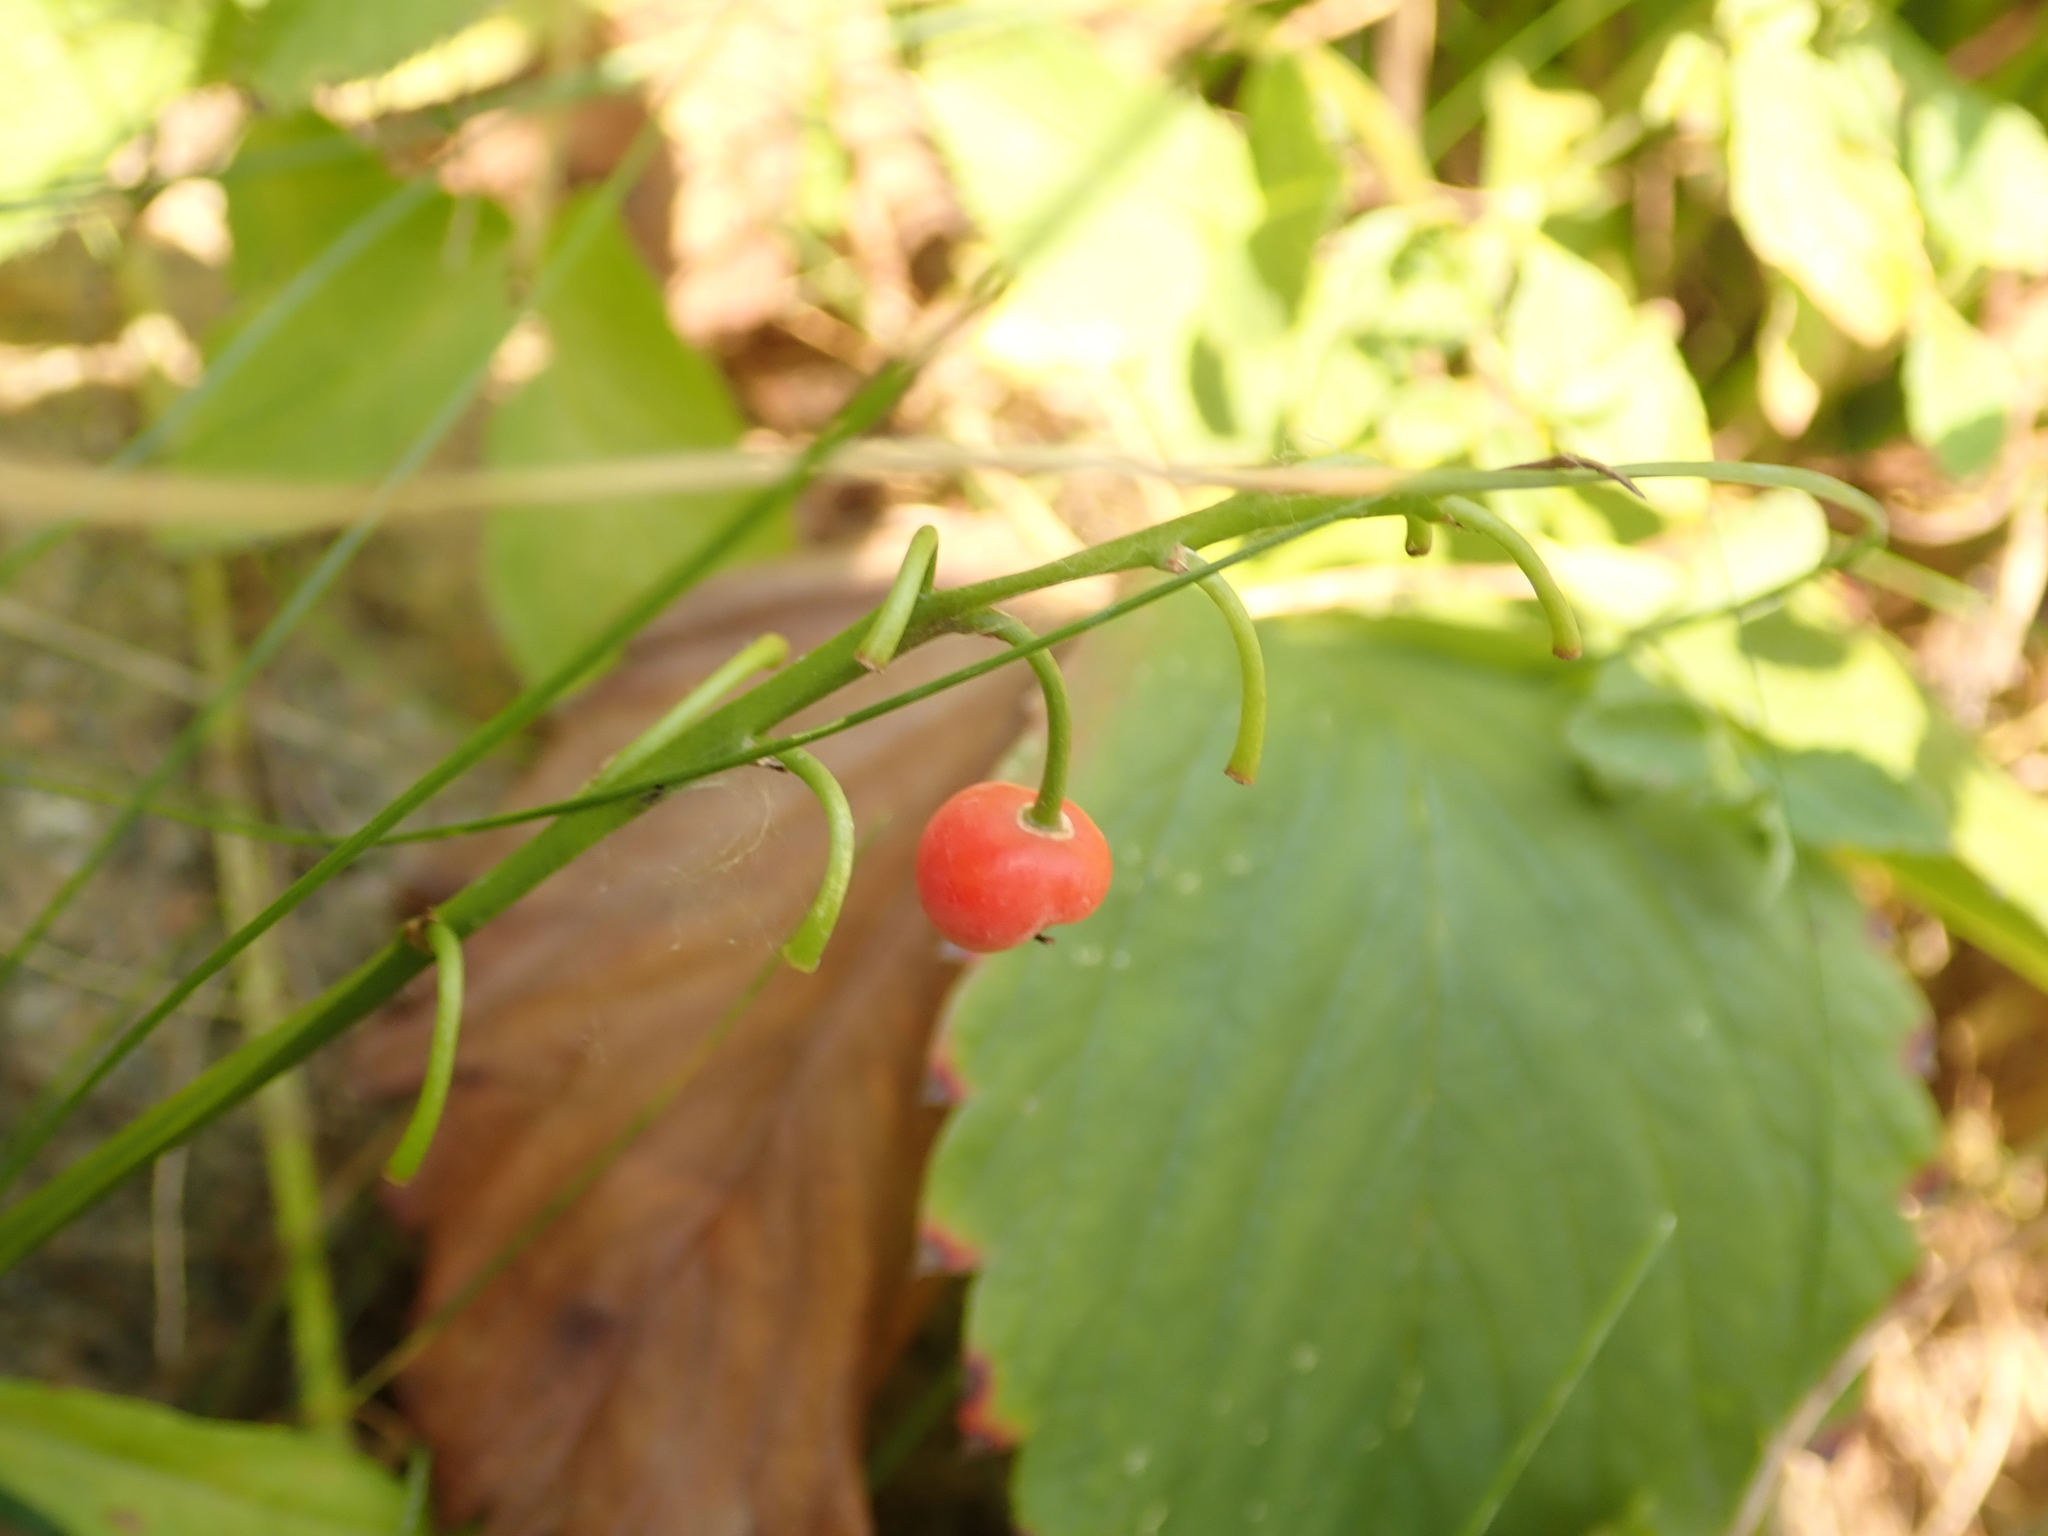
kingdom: Plantae
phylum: Tracheophyta
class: Liliopsida
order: Asparagales
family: Asparagaceae
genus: Convallaria
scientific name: Convallaria majalis
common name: Lily-of-the-valley
